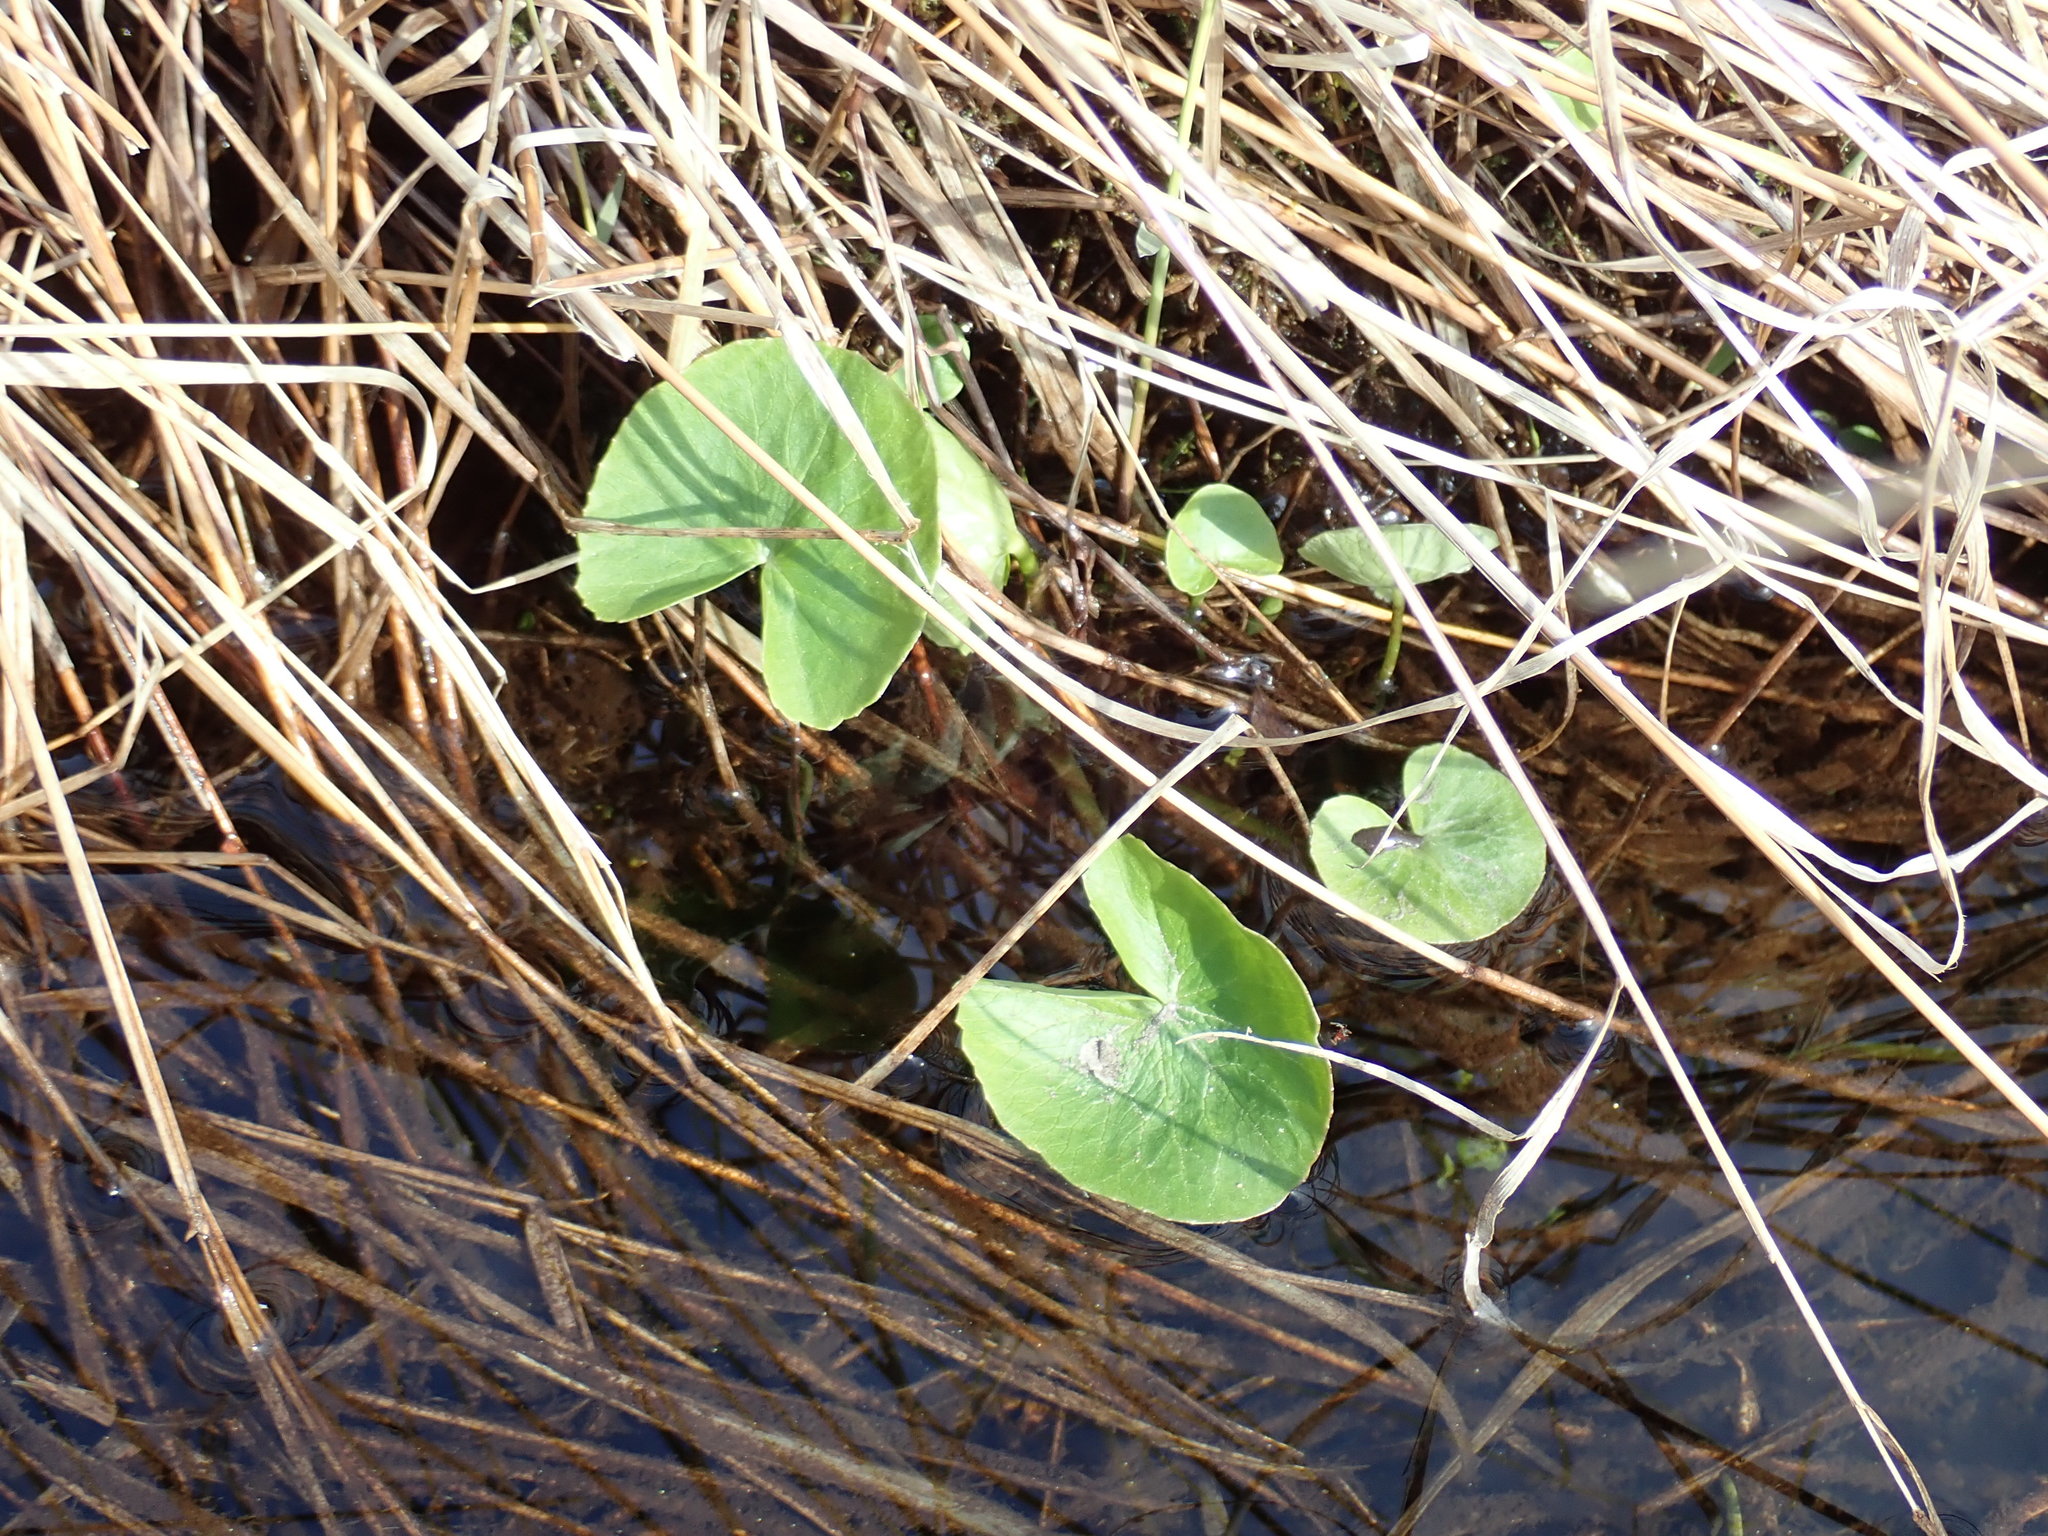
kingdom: Plantae
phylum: Tracheophyta
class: Magnoliopsida
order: Ranunculales
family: Ranunculaceae
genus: Caltha
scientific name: Caltha palustris
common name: Marsh marigold
